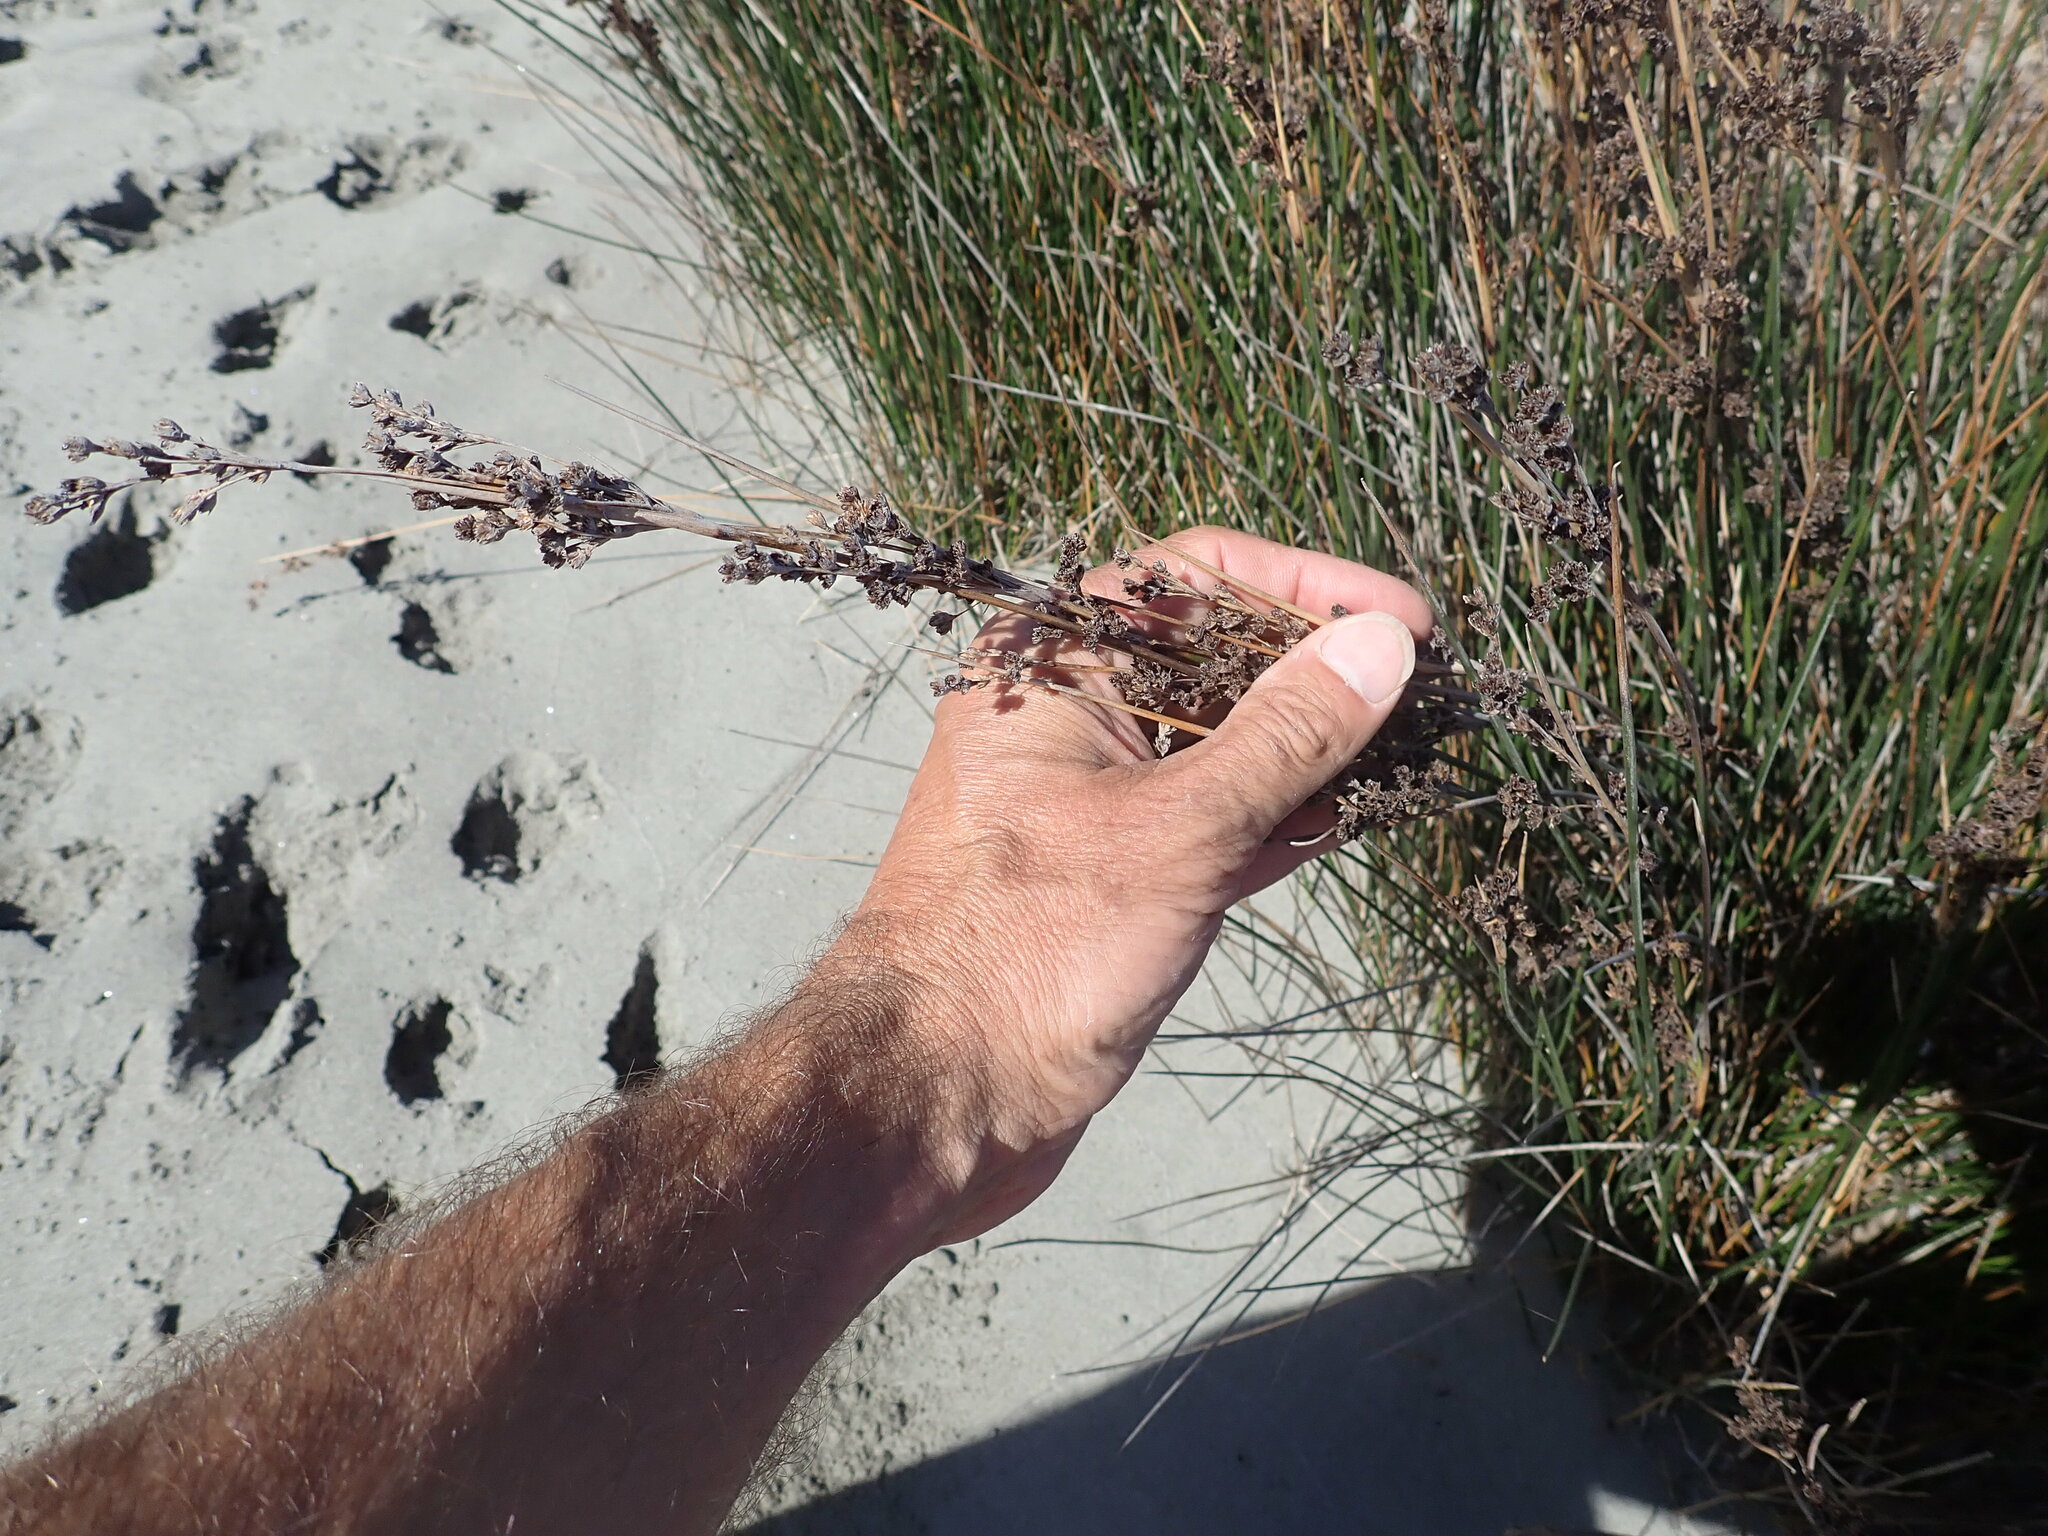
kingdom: Plantae
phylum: Tracheophyta
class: Liliopsida
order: Poales
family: Juncaceae
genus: Juncus
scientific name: Juncus kraussii
